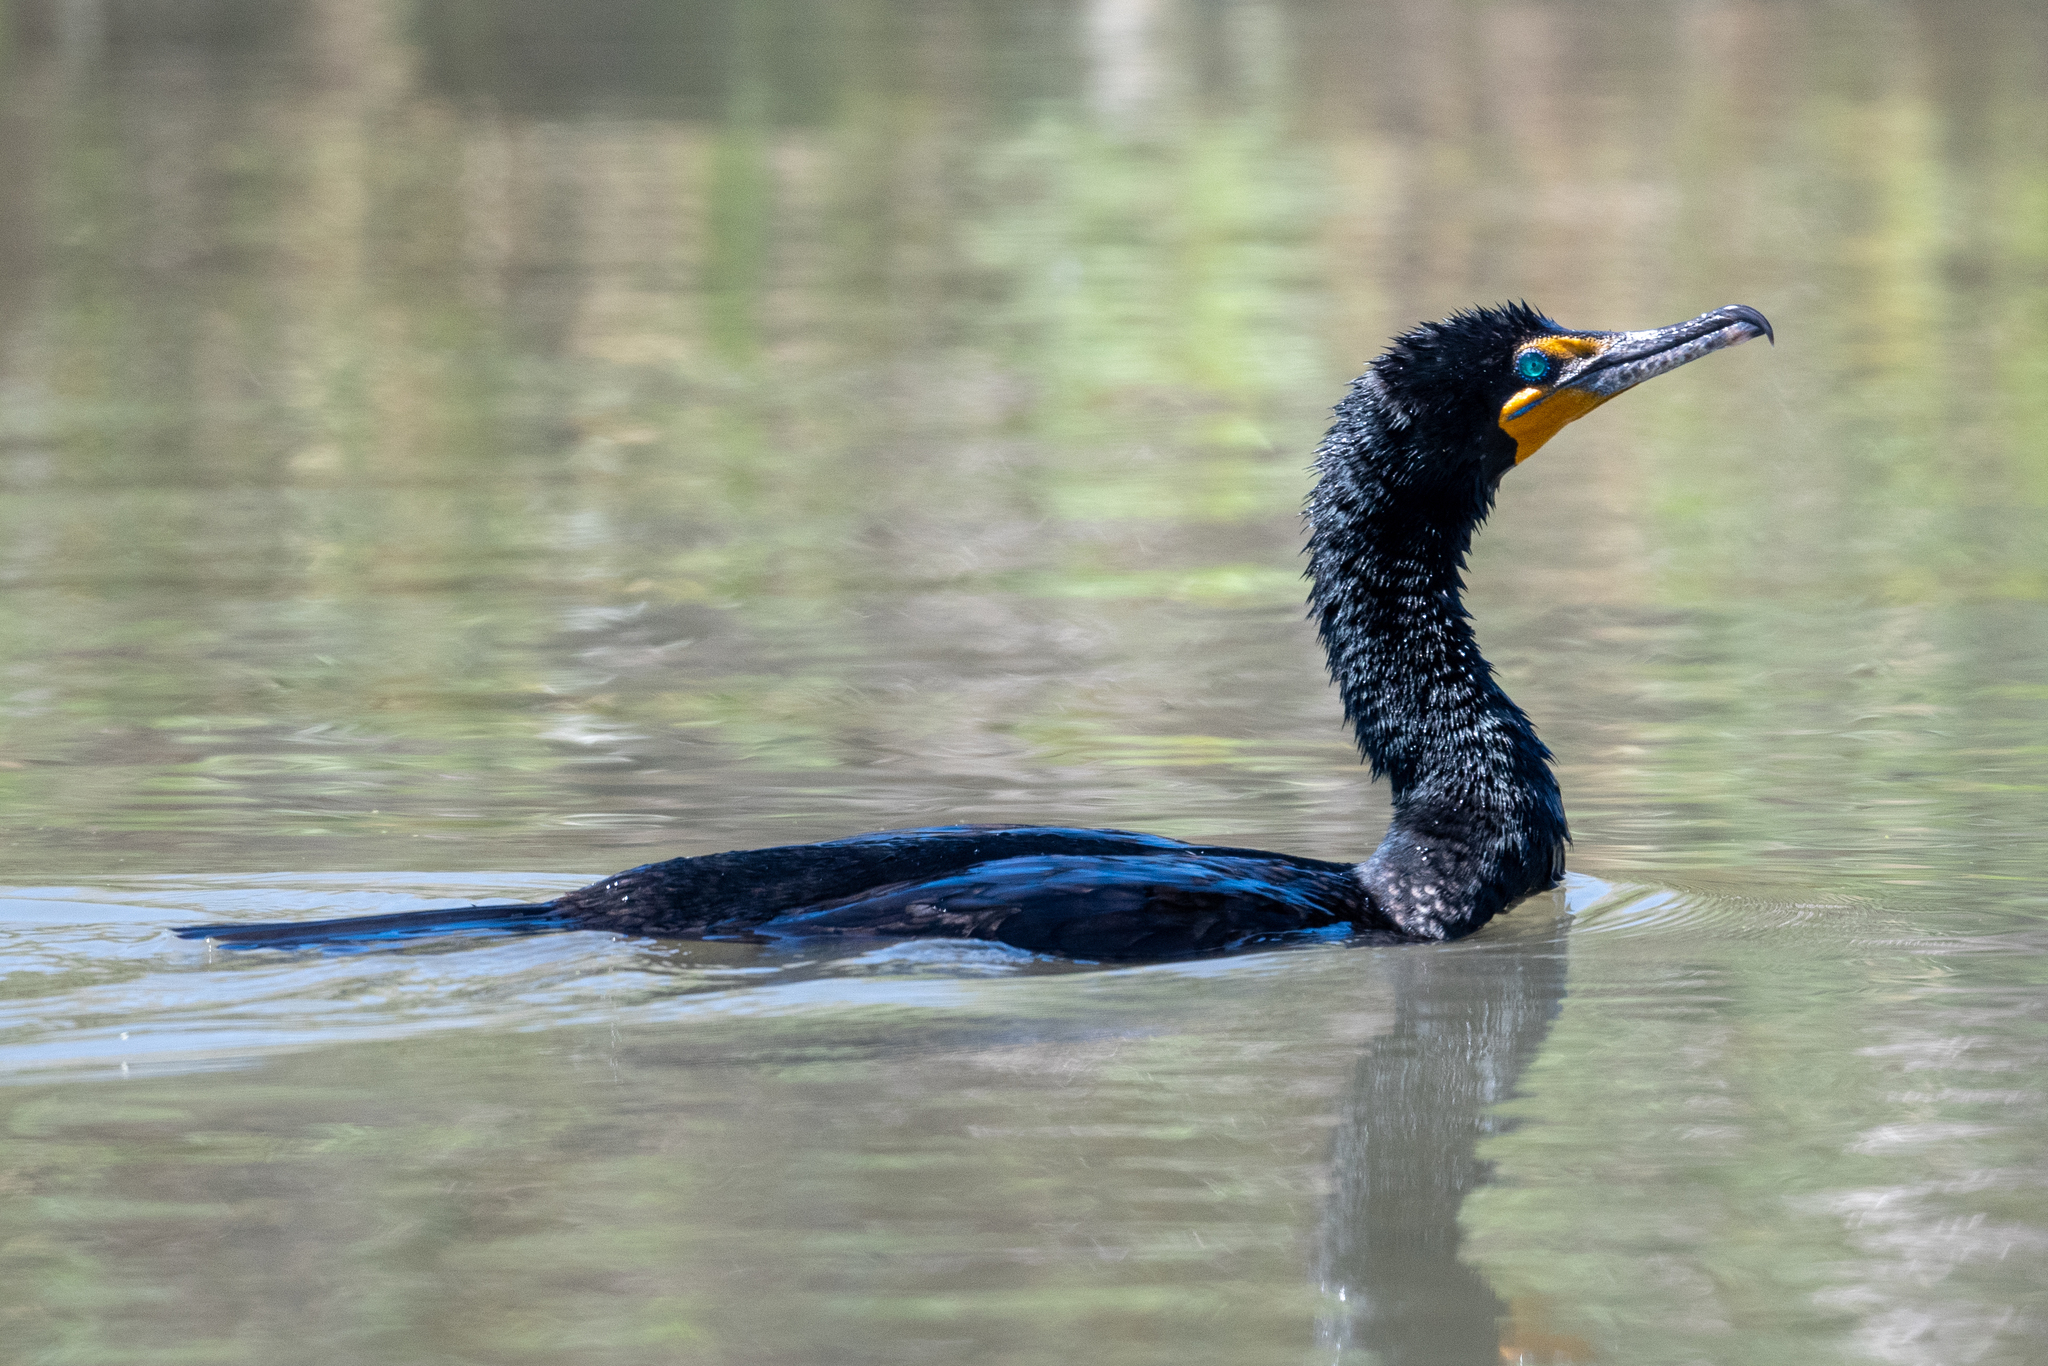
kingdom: Animalia
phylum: Chordata
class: Aves
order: Suliformes
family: Phalacrocoracidae
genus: Phalacrocorax
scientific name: Phalacrocorax auritus
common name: Double-crested cormorant
